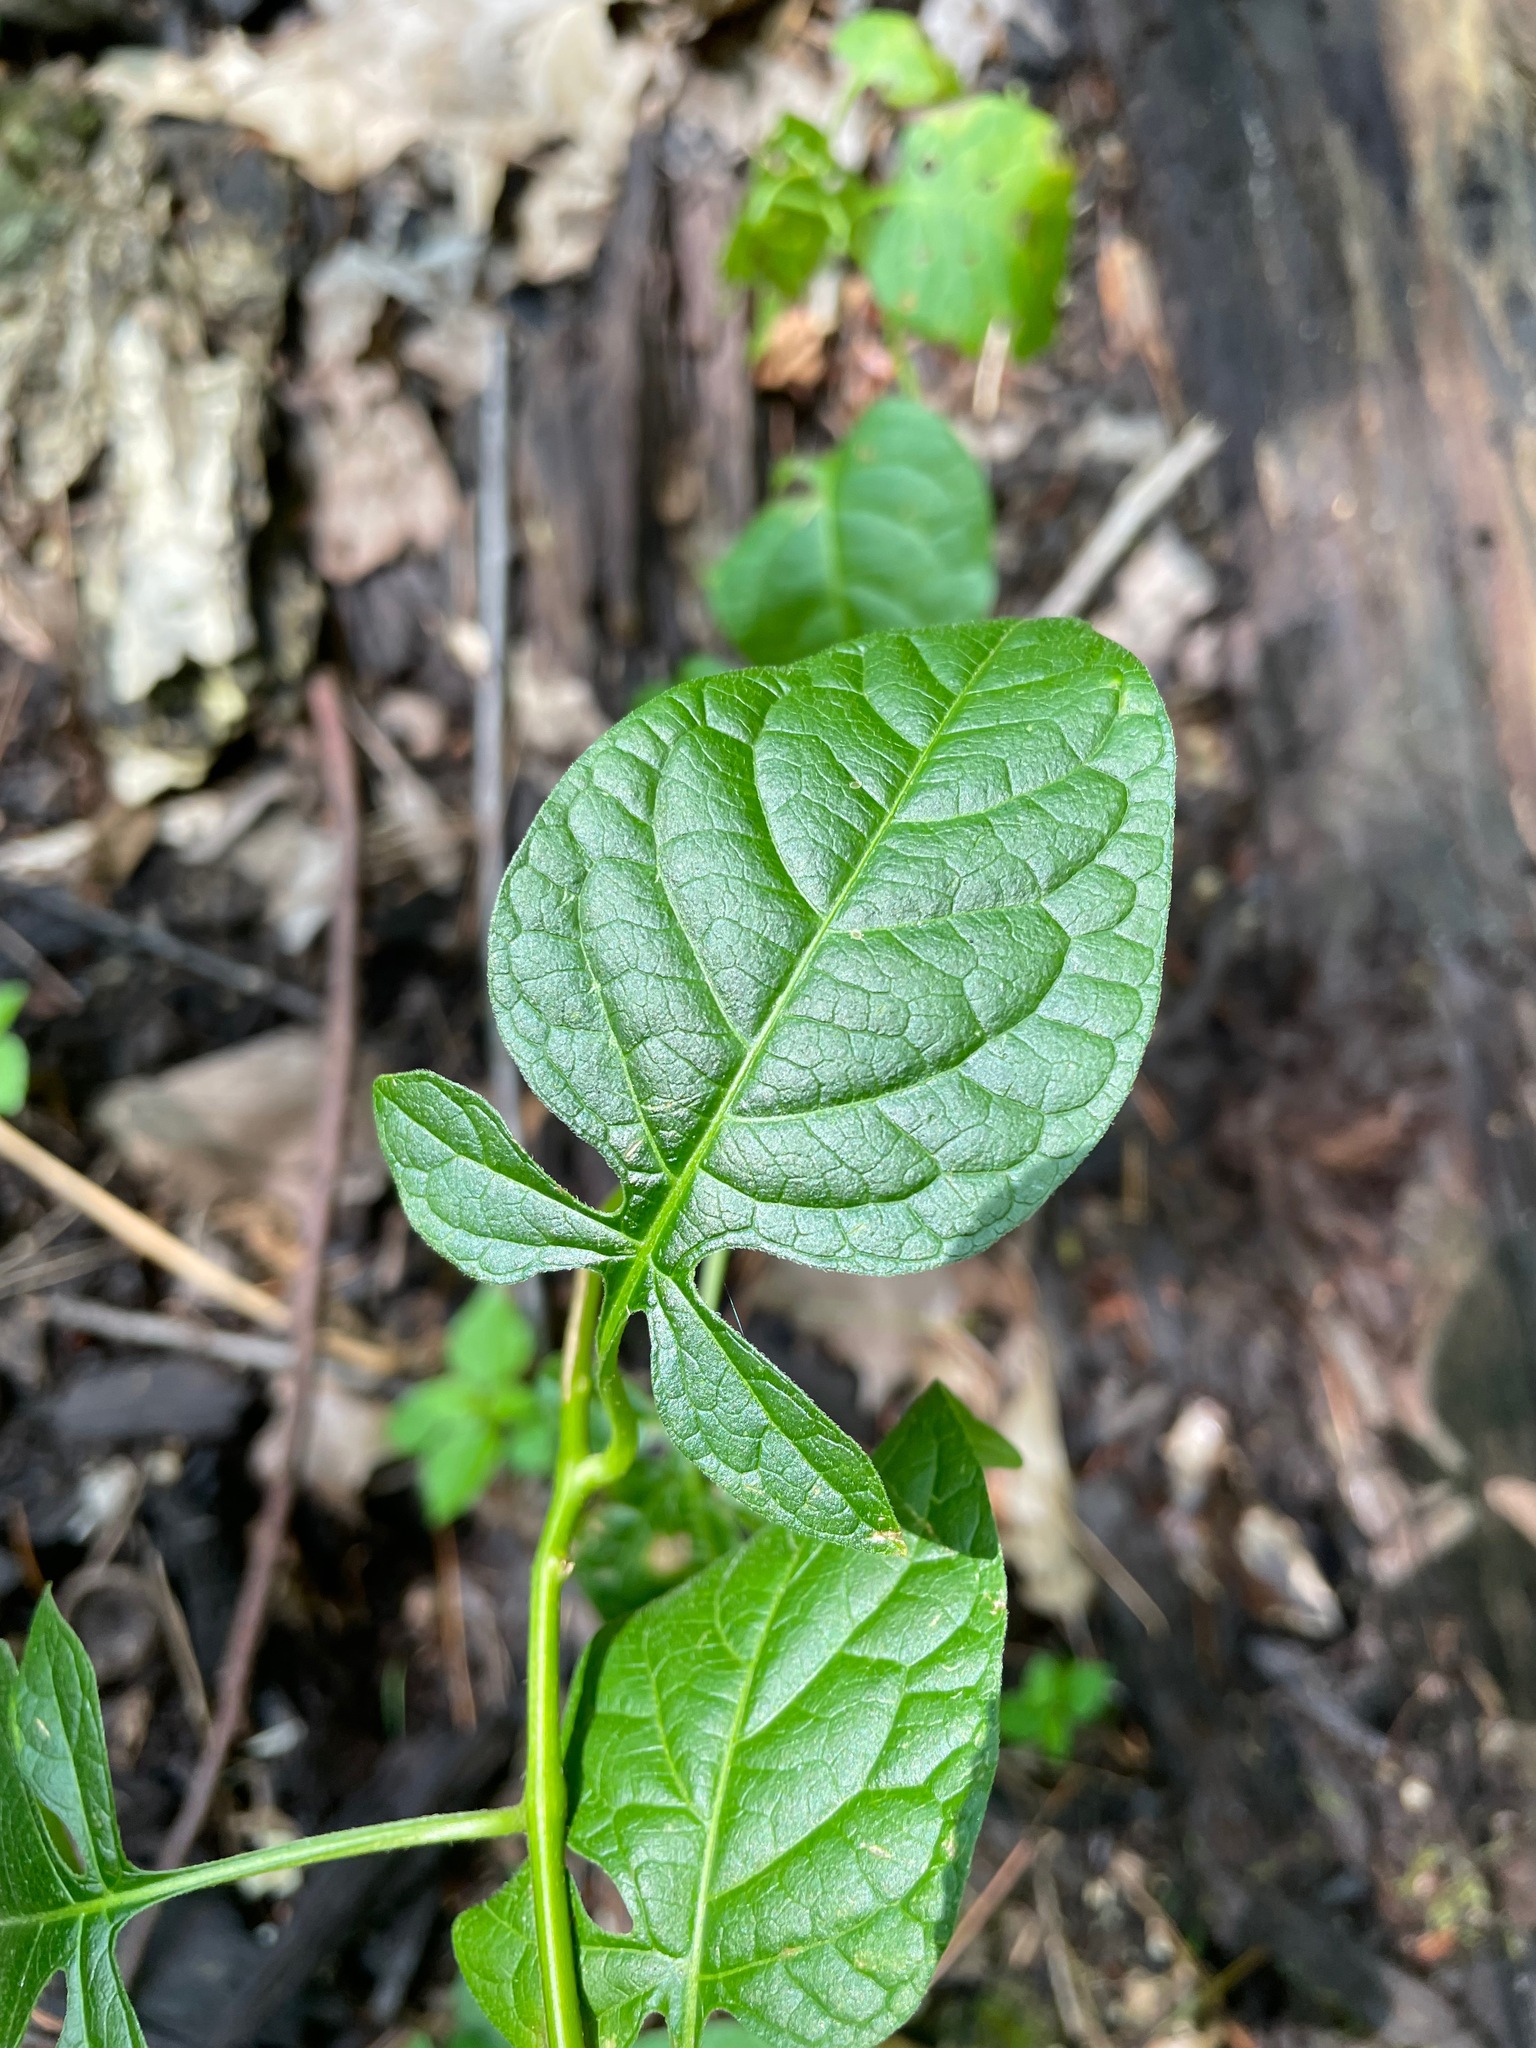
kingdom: Plantae
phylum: Tracheophyta
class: Magnoliopsida
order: Solanales
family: Solanaceae
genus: Solanum
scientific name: Solanum dulcamara
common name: Climbing nightshade
